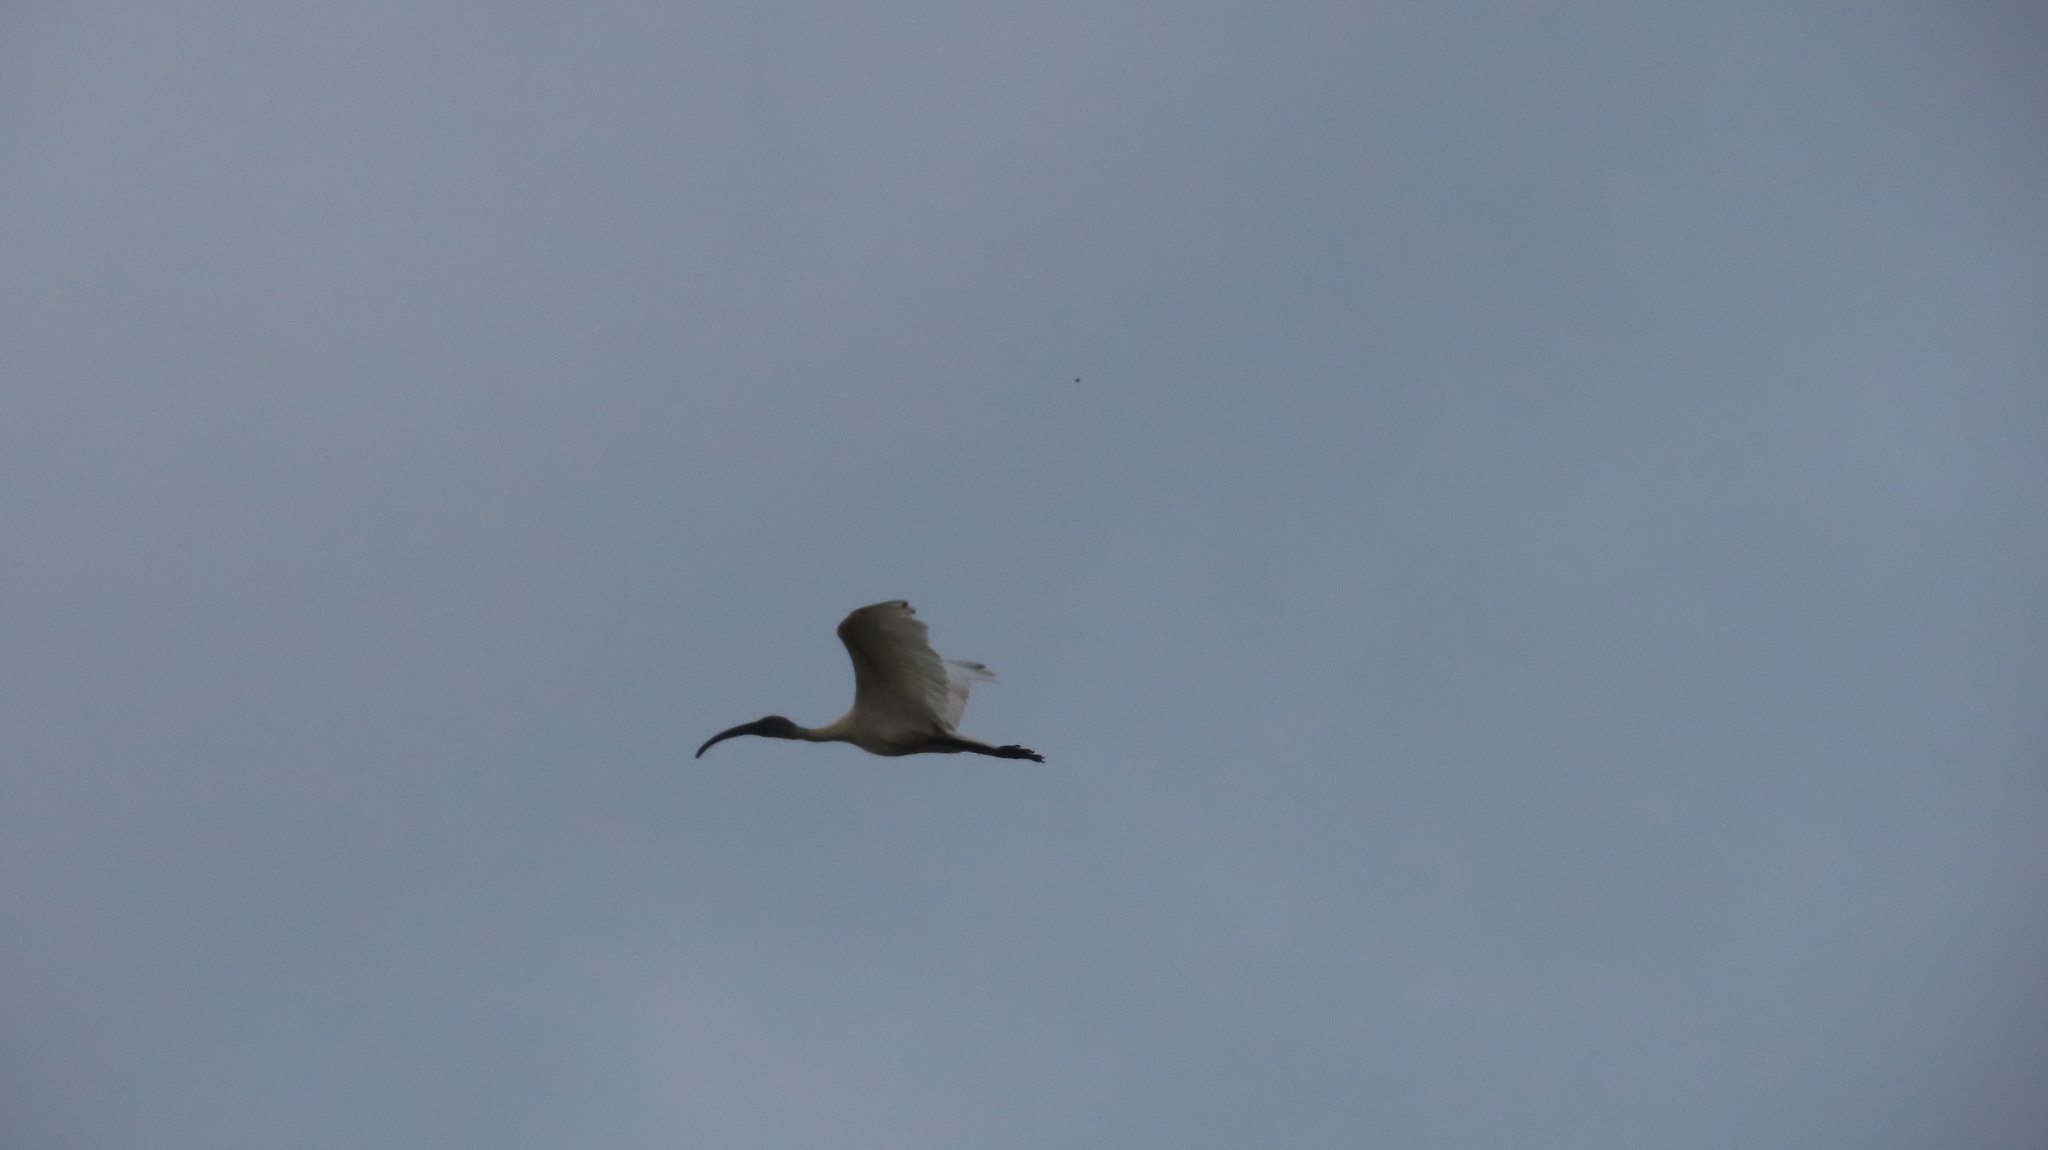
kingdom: Animalia
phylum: Chordata
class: Aves
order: Pelecaniformes
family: Threskiornithidae
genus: Threskiornis
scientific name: Threskiornis melanocephalus
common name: Black-headed ibis
